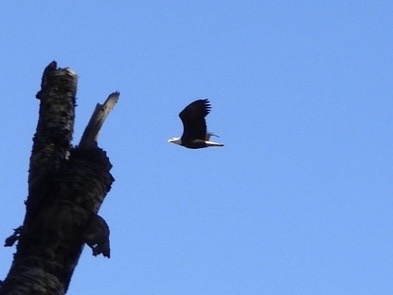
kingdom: Animalia
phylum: Chordata
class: Aves
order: Accipitriformes
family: Accipitridae
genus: Haliaeetus
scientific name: Haliaeetus leucocephalus
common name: Bald eagle
